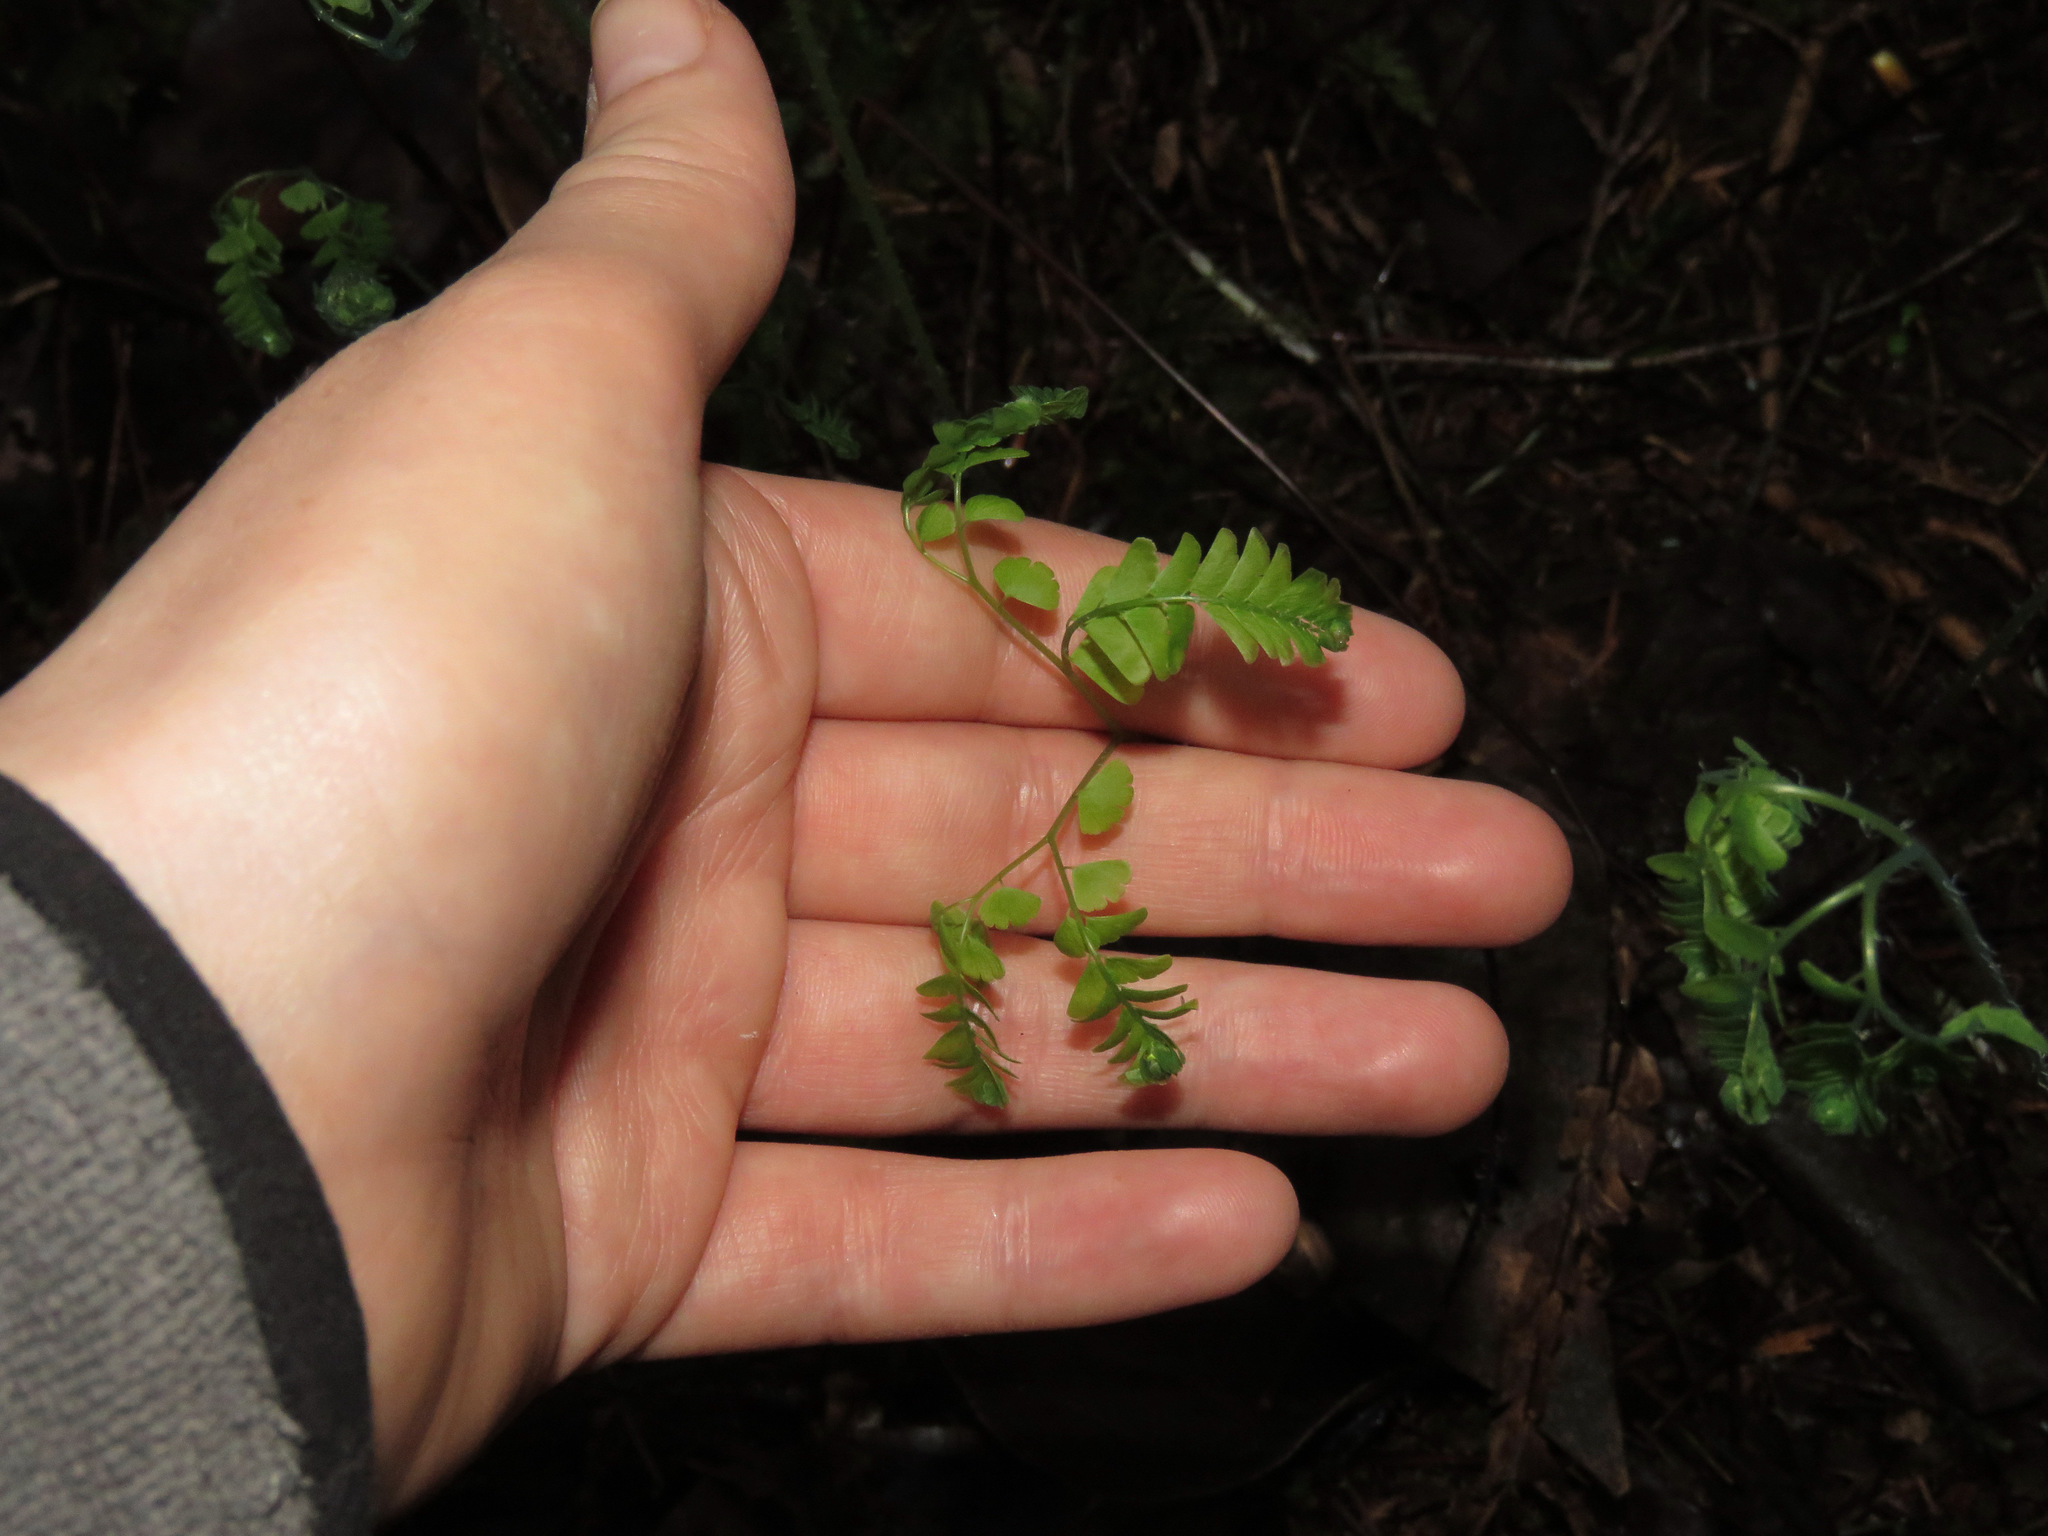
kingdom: Plantae
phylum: Tracheophyta
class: Polypodiopsida
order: Polypodiales
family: Pteridaceae
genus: Adiantum
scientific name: Adiantum aleuticum
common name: Aleutian maidenhair fern
